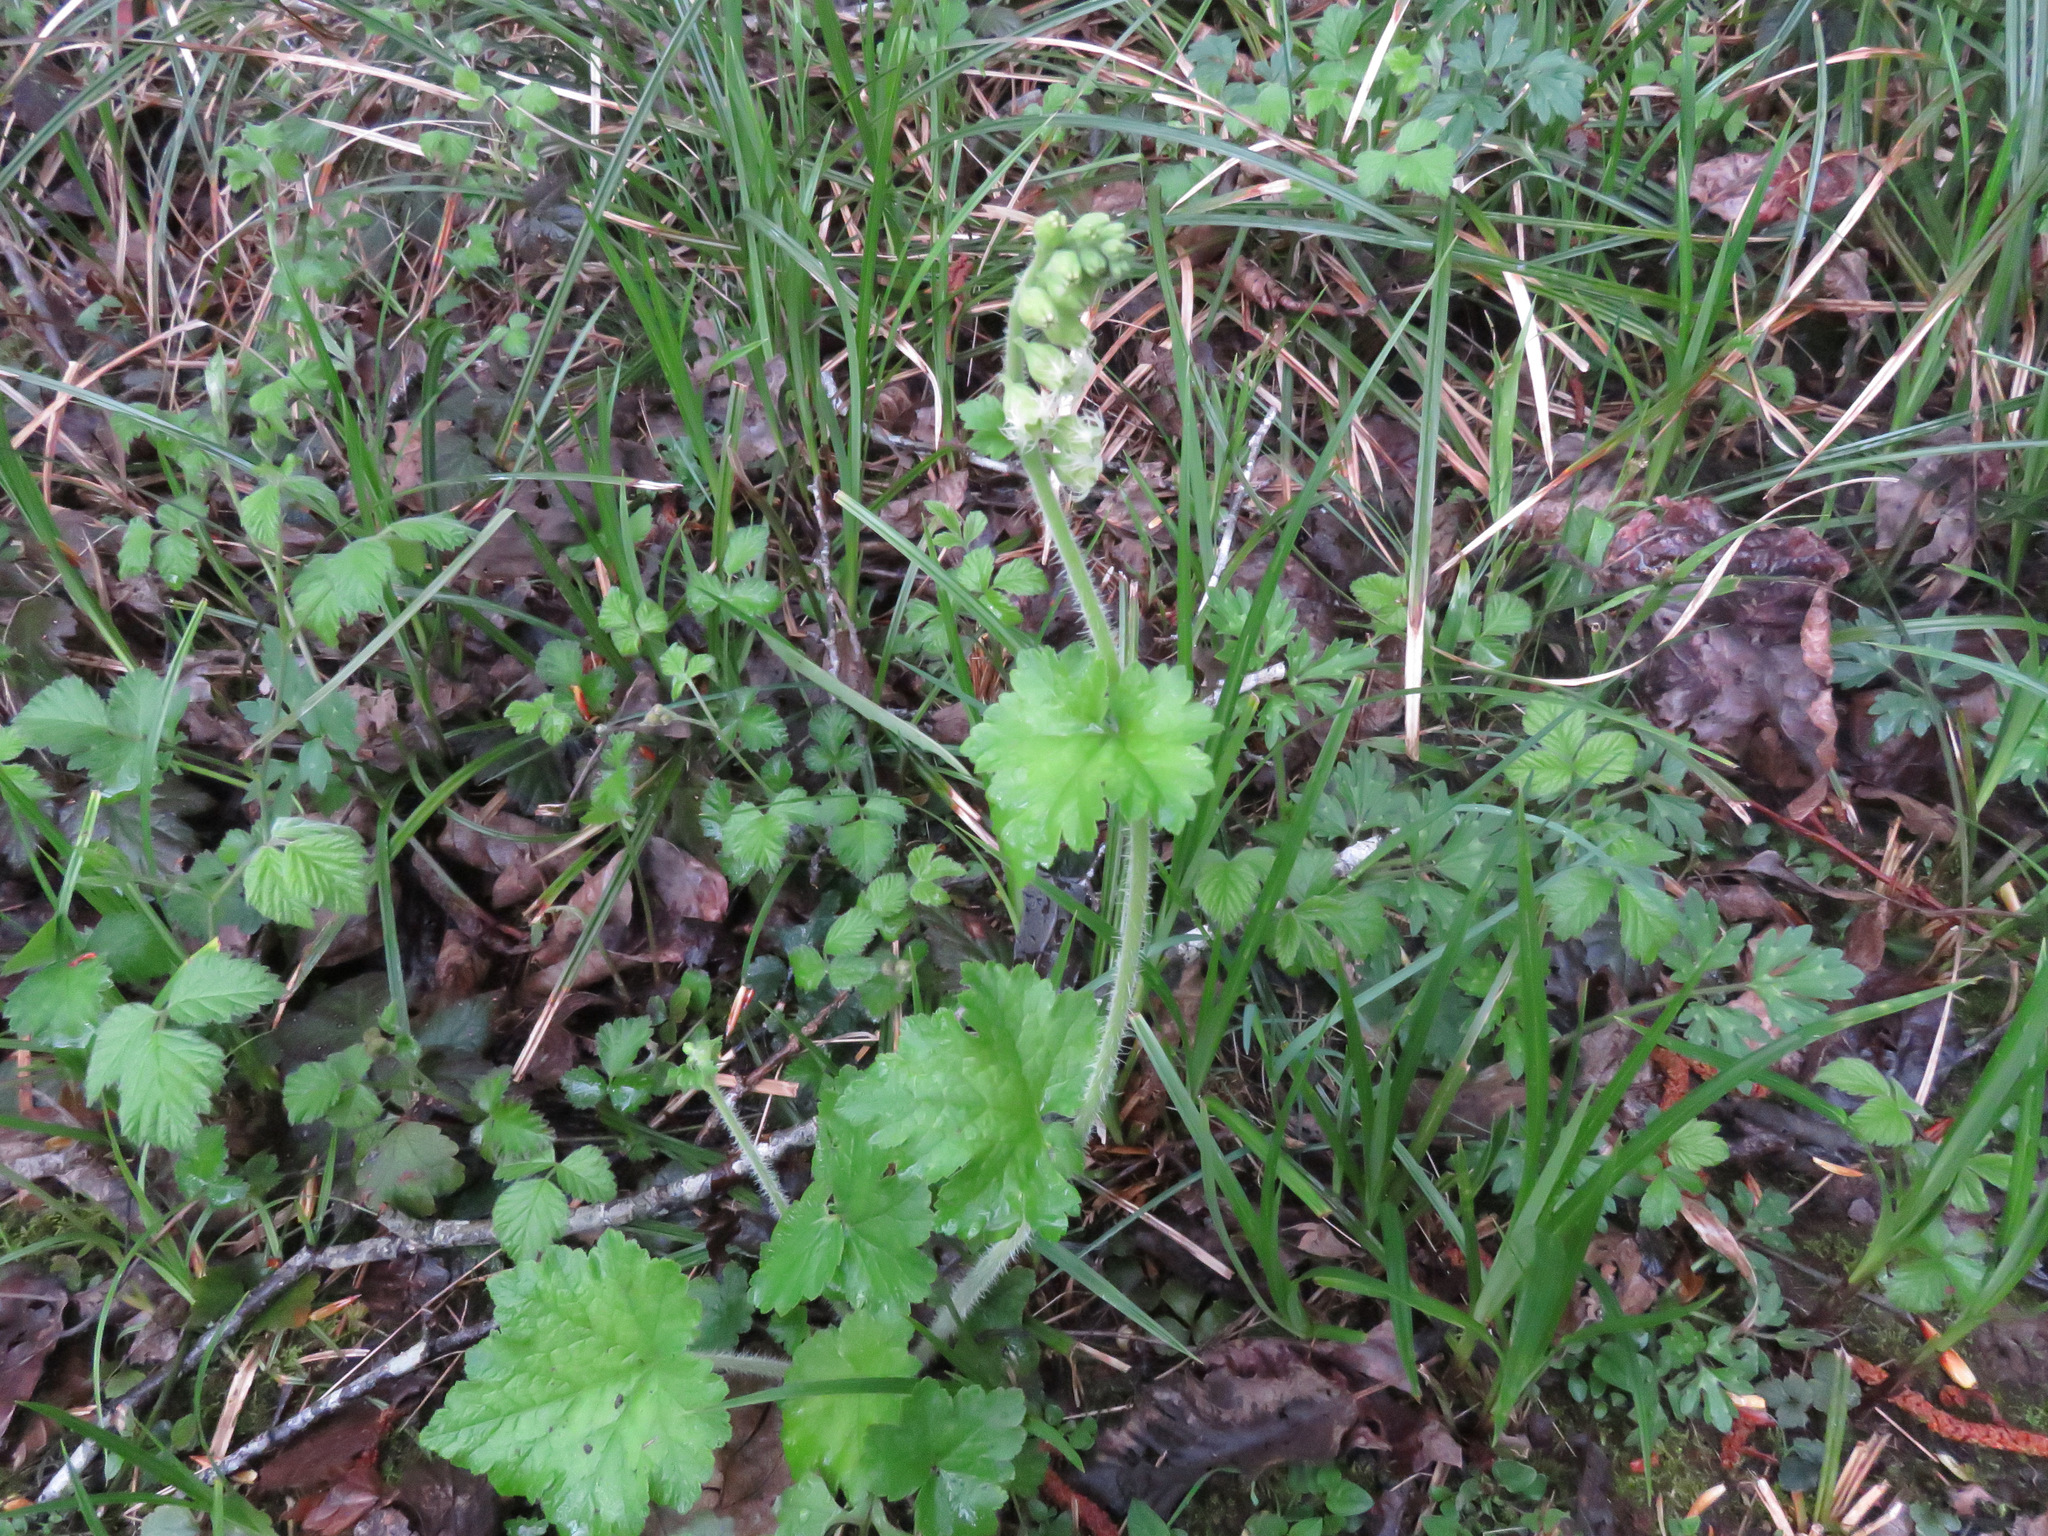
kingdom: Plantae
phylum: Tracheophyta
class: Magnoliopsida
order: Saxifragales
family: Saxifragaceae
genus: Tellima
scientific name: Tellima grandiflora
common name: Fringecups
